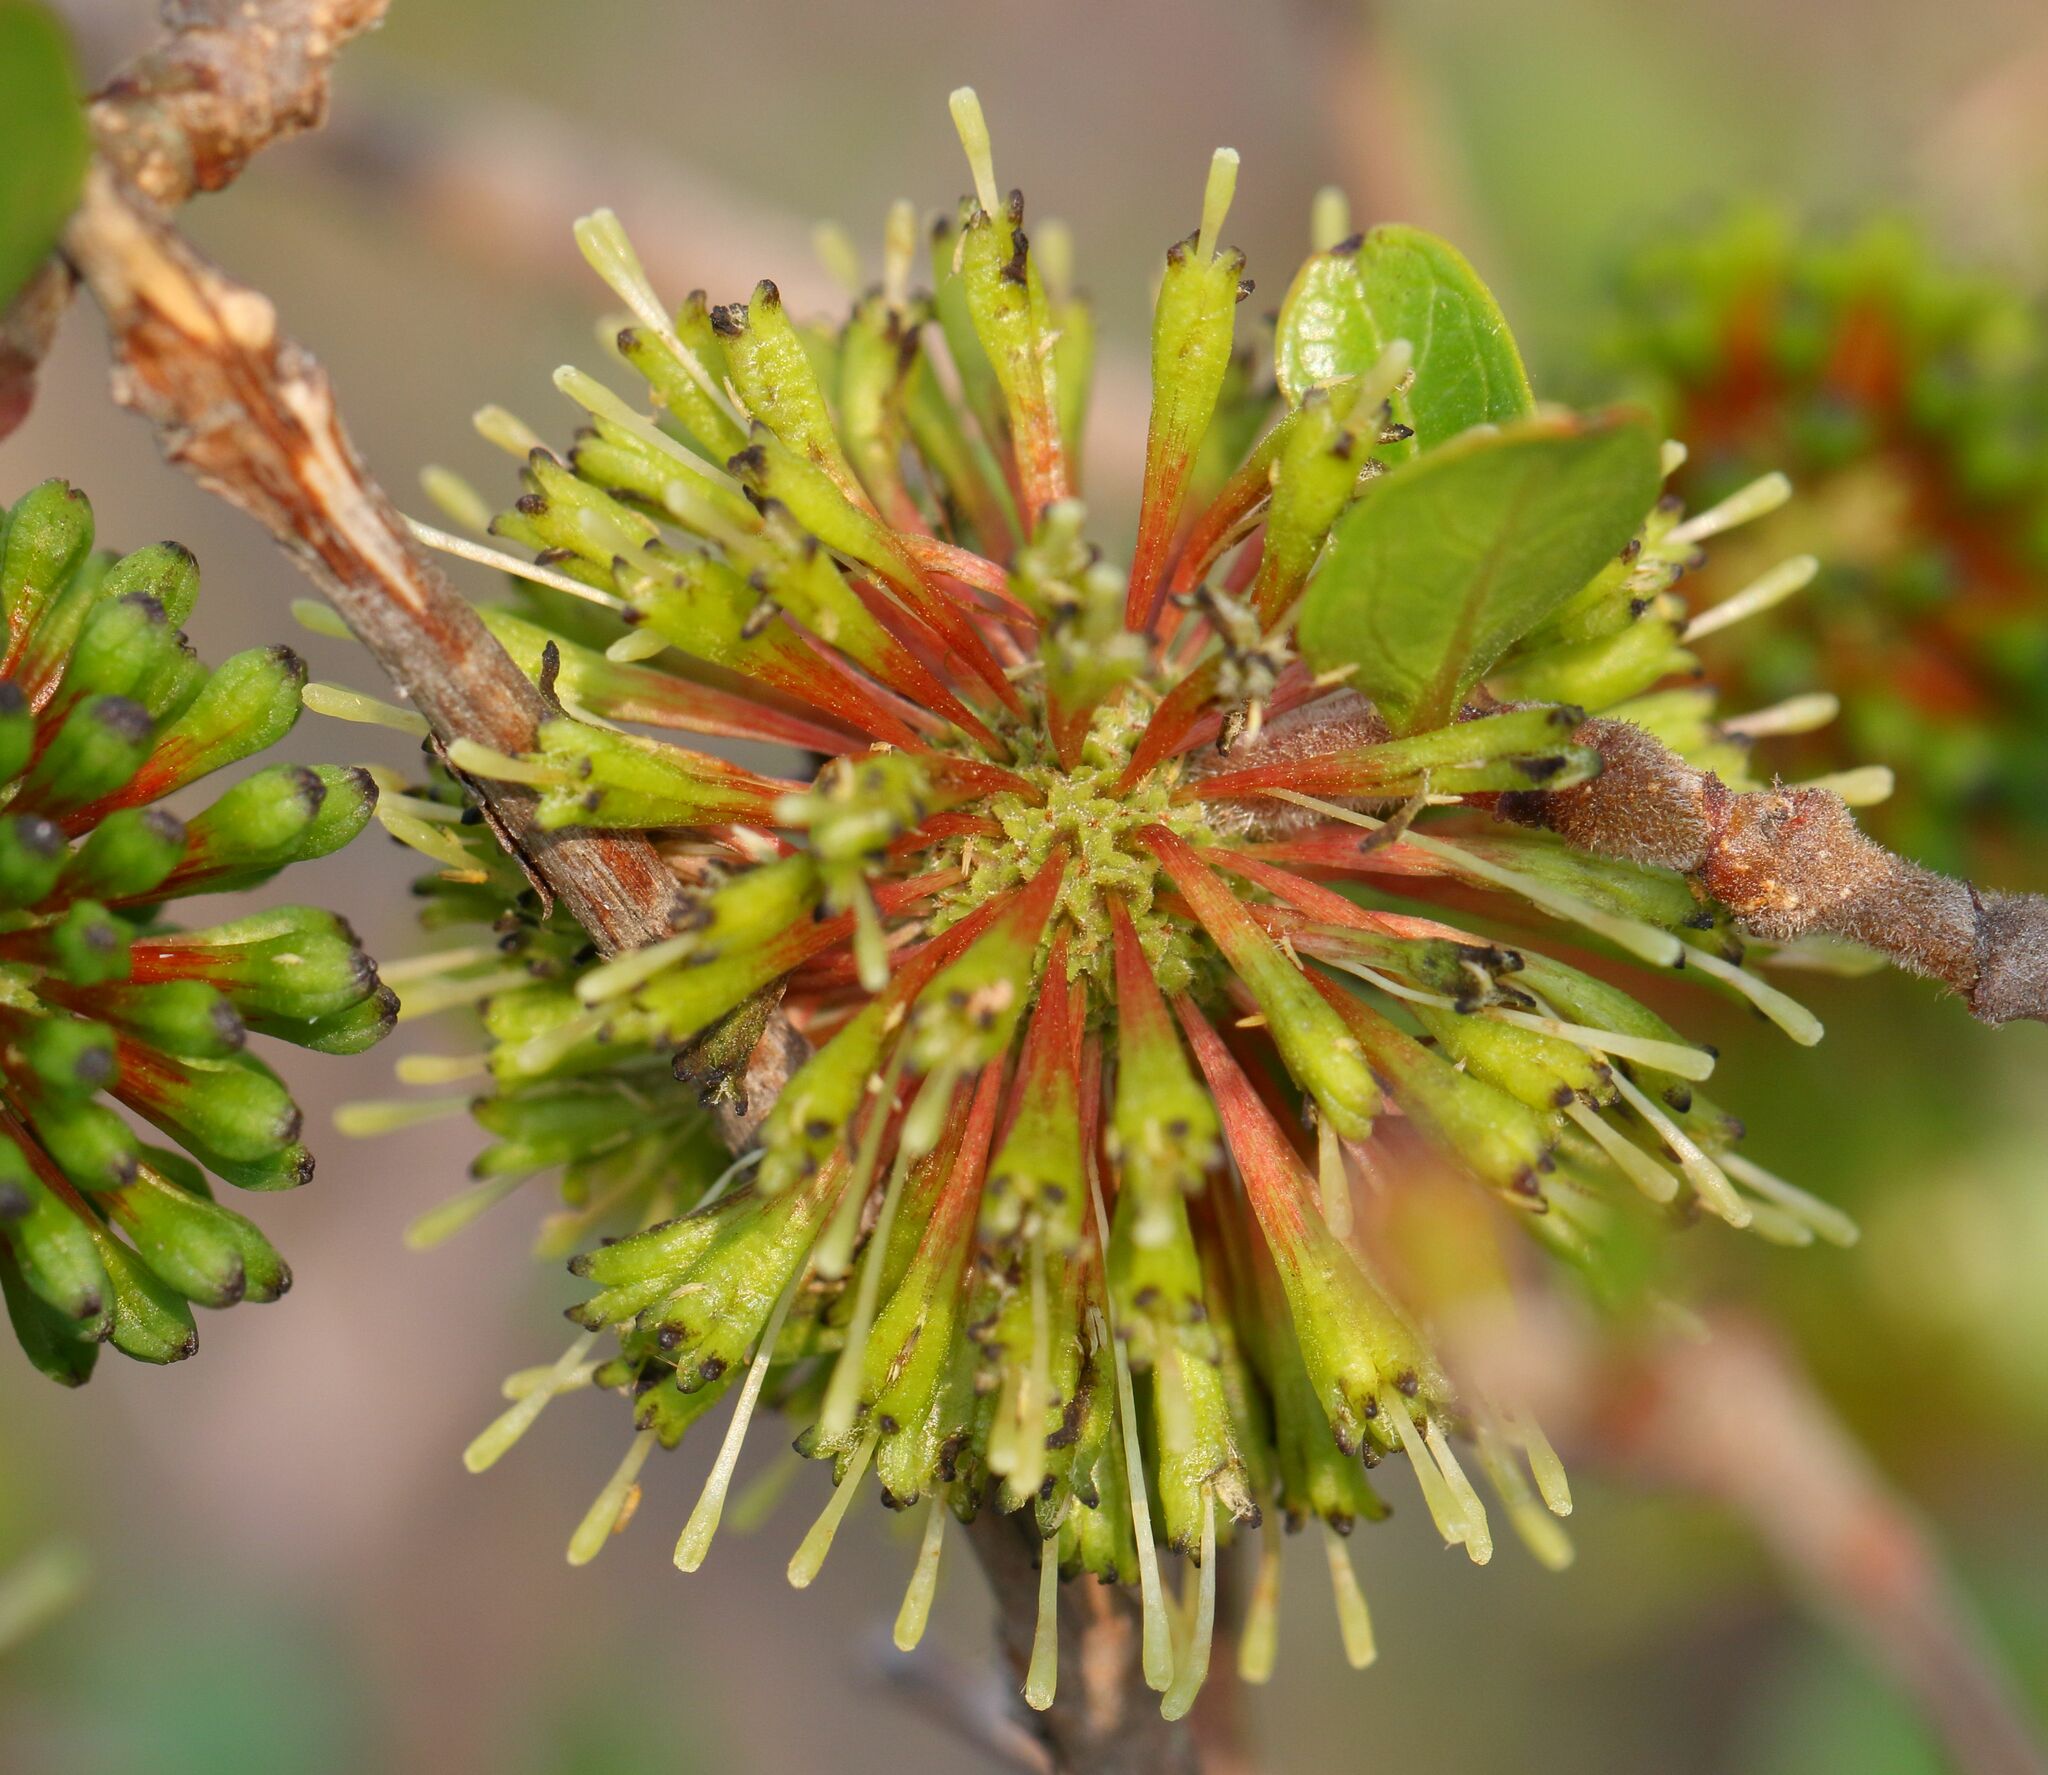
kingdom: Plantae
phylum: Tracheophyta
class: Magnoliopsida
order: Gentianales
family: Rubiaceae
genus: Cephalanthus
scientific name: Cephalanthus natalensis
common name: Strawberry bush
